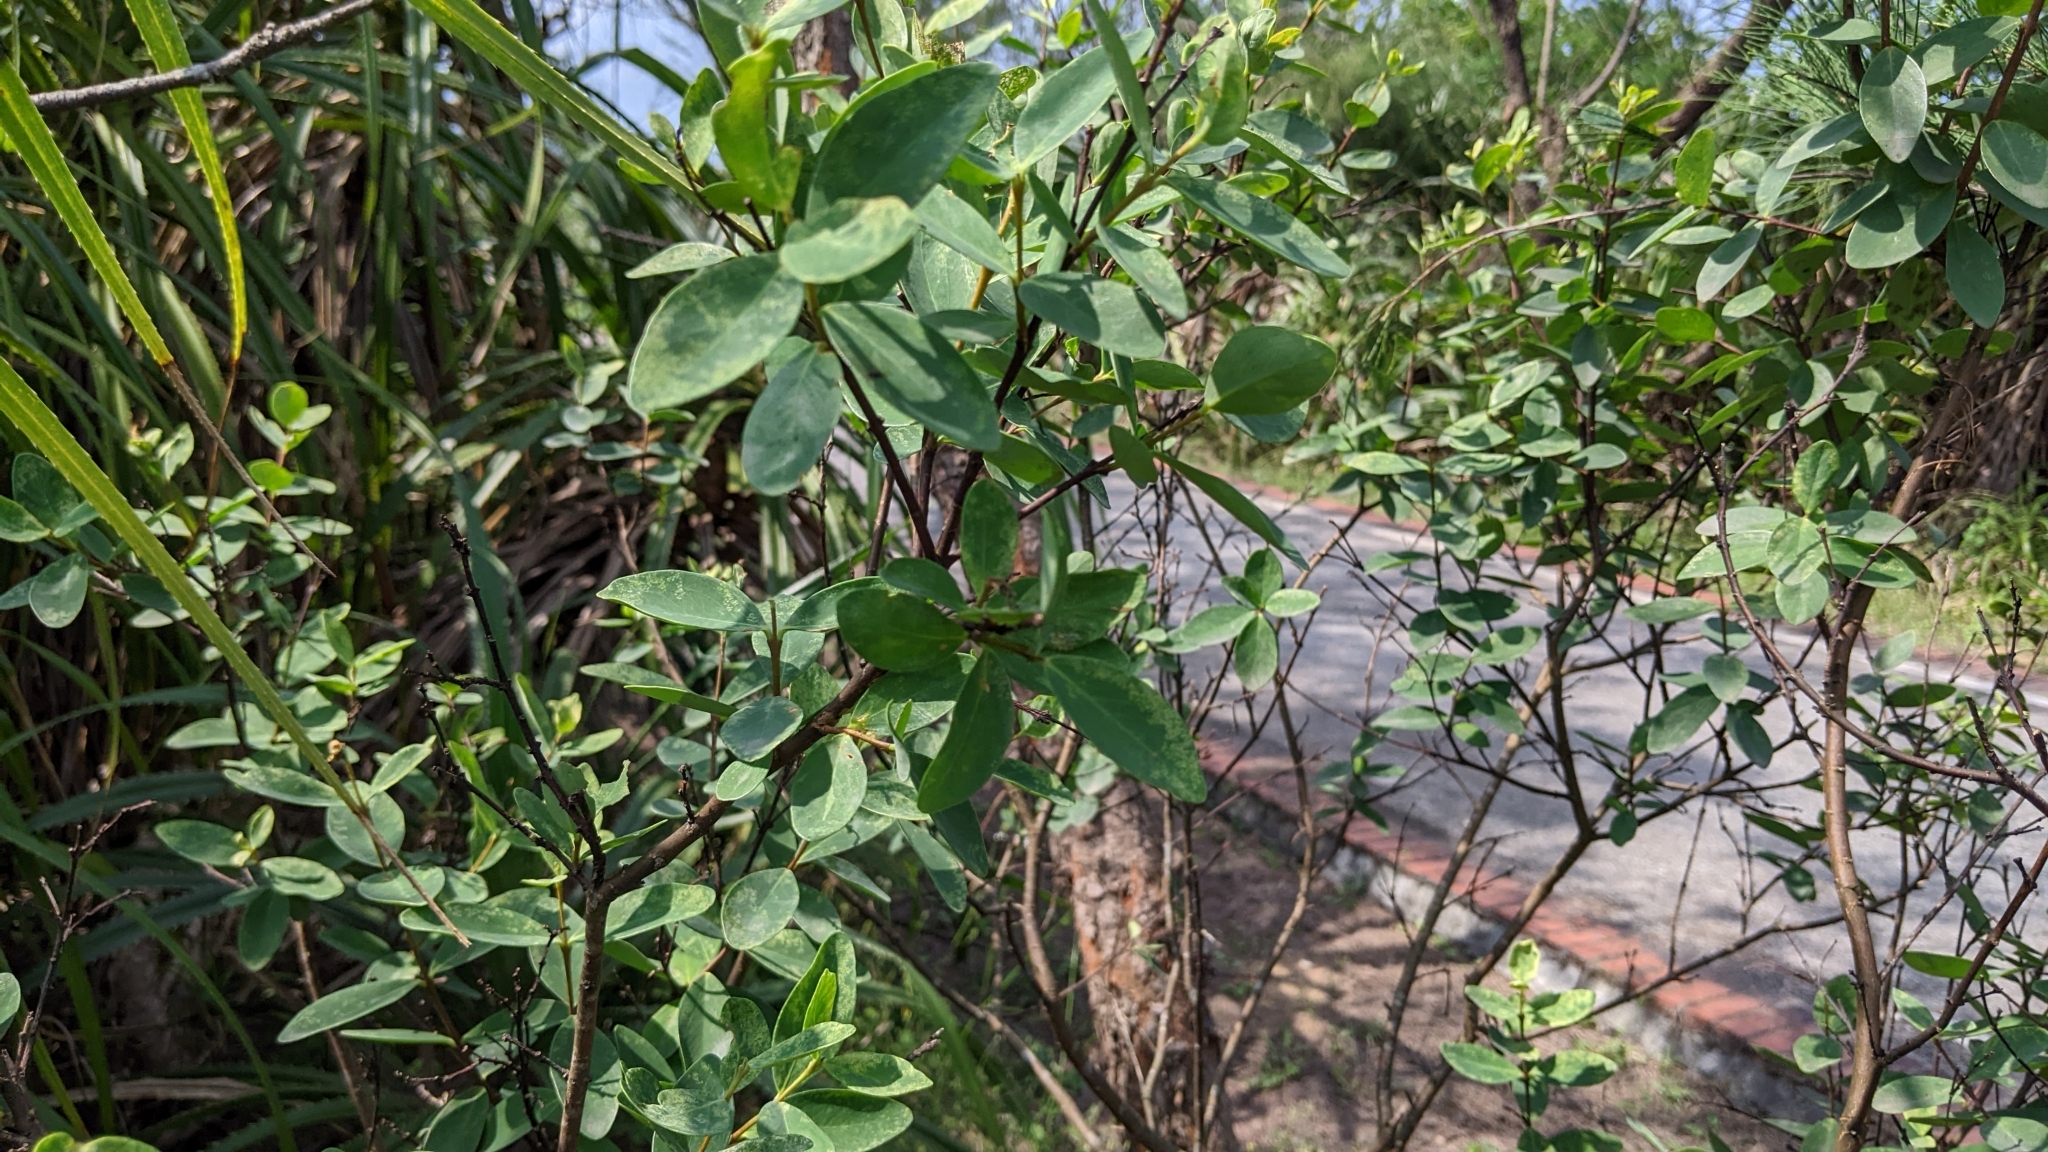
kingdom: Plantae
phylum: Tracheophyta
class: Magnoliopsida
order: Malvales
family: Thymelaeaceae
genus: Wikstroemia
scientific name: Wikstroemia indica
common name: Tiebush
